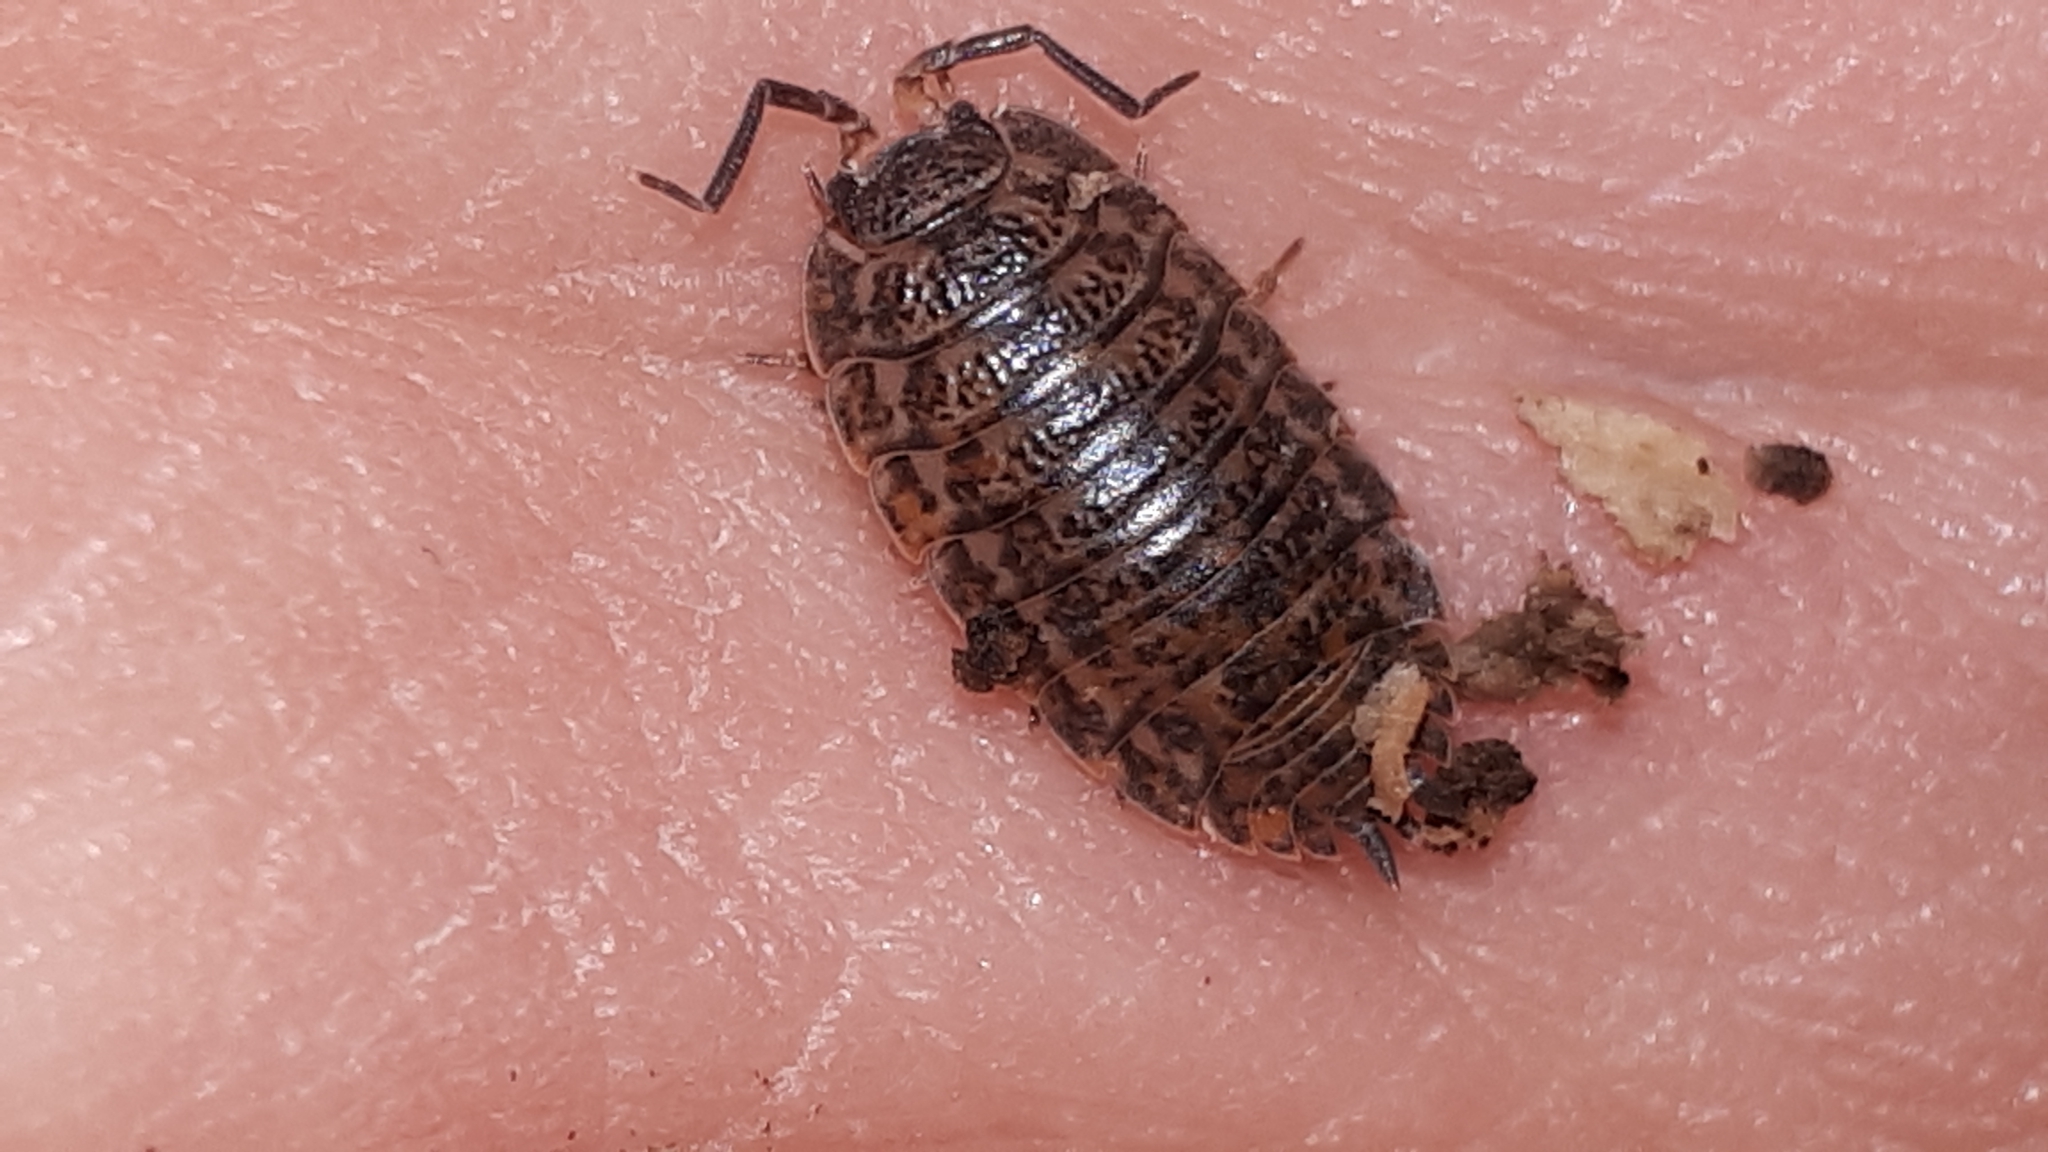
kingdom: Animalia
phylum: Arthropoda
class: Malacostraca
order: Isopoda
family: Trachelipodidae
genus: Trachelipus
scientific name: Trachelipus rathkii
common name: Isopod
